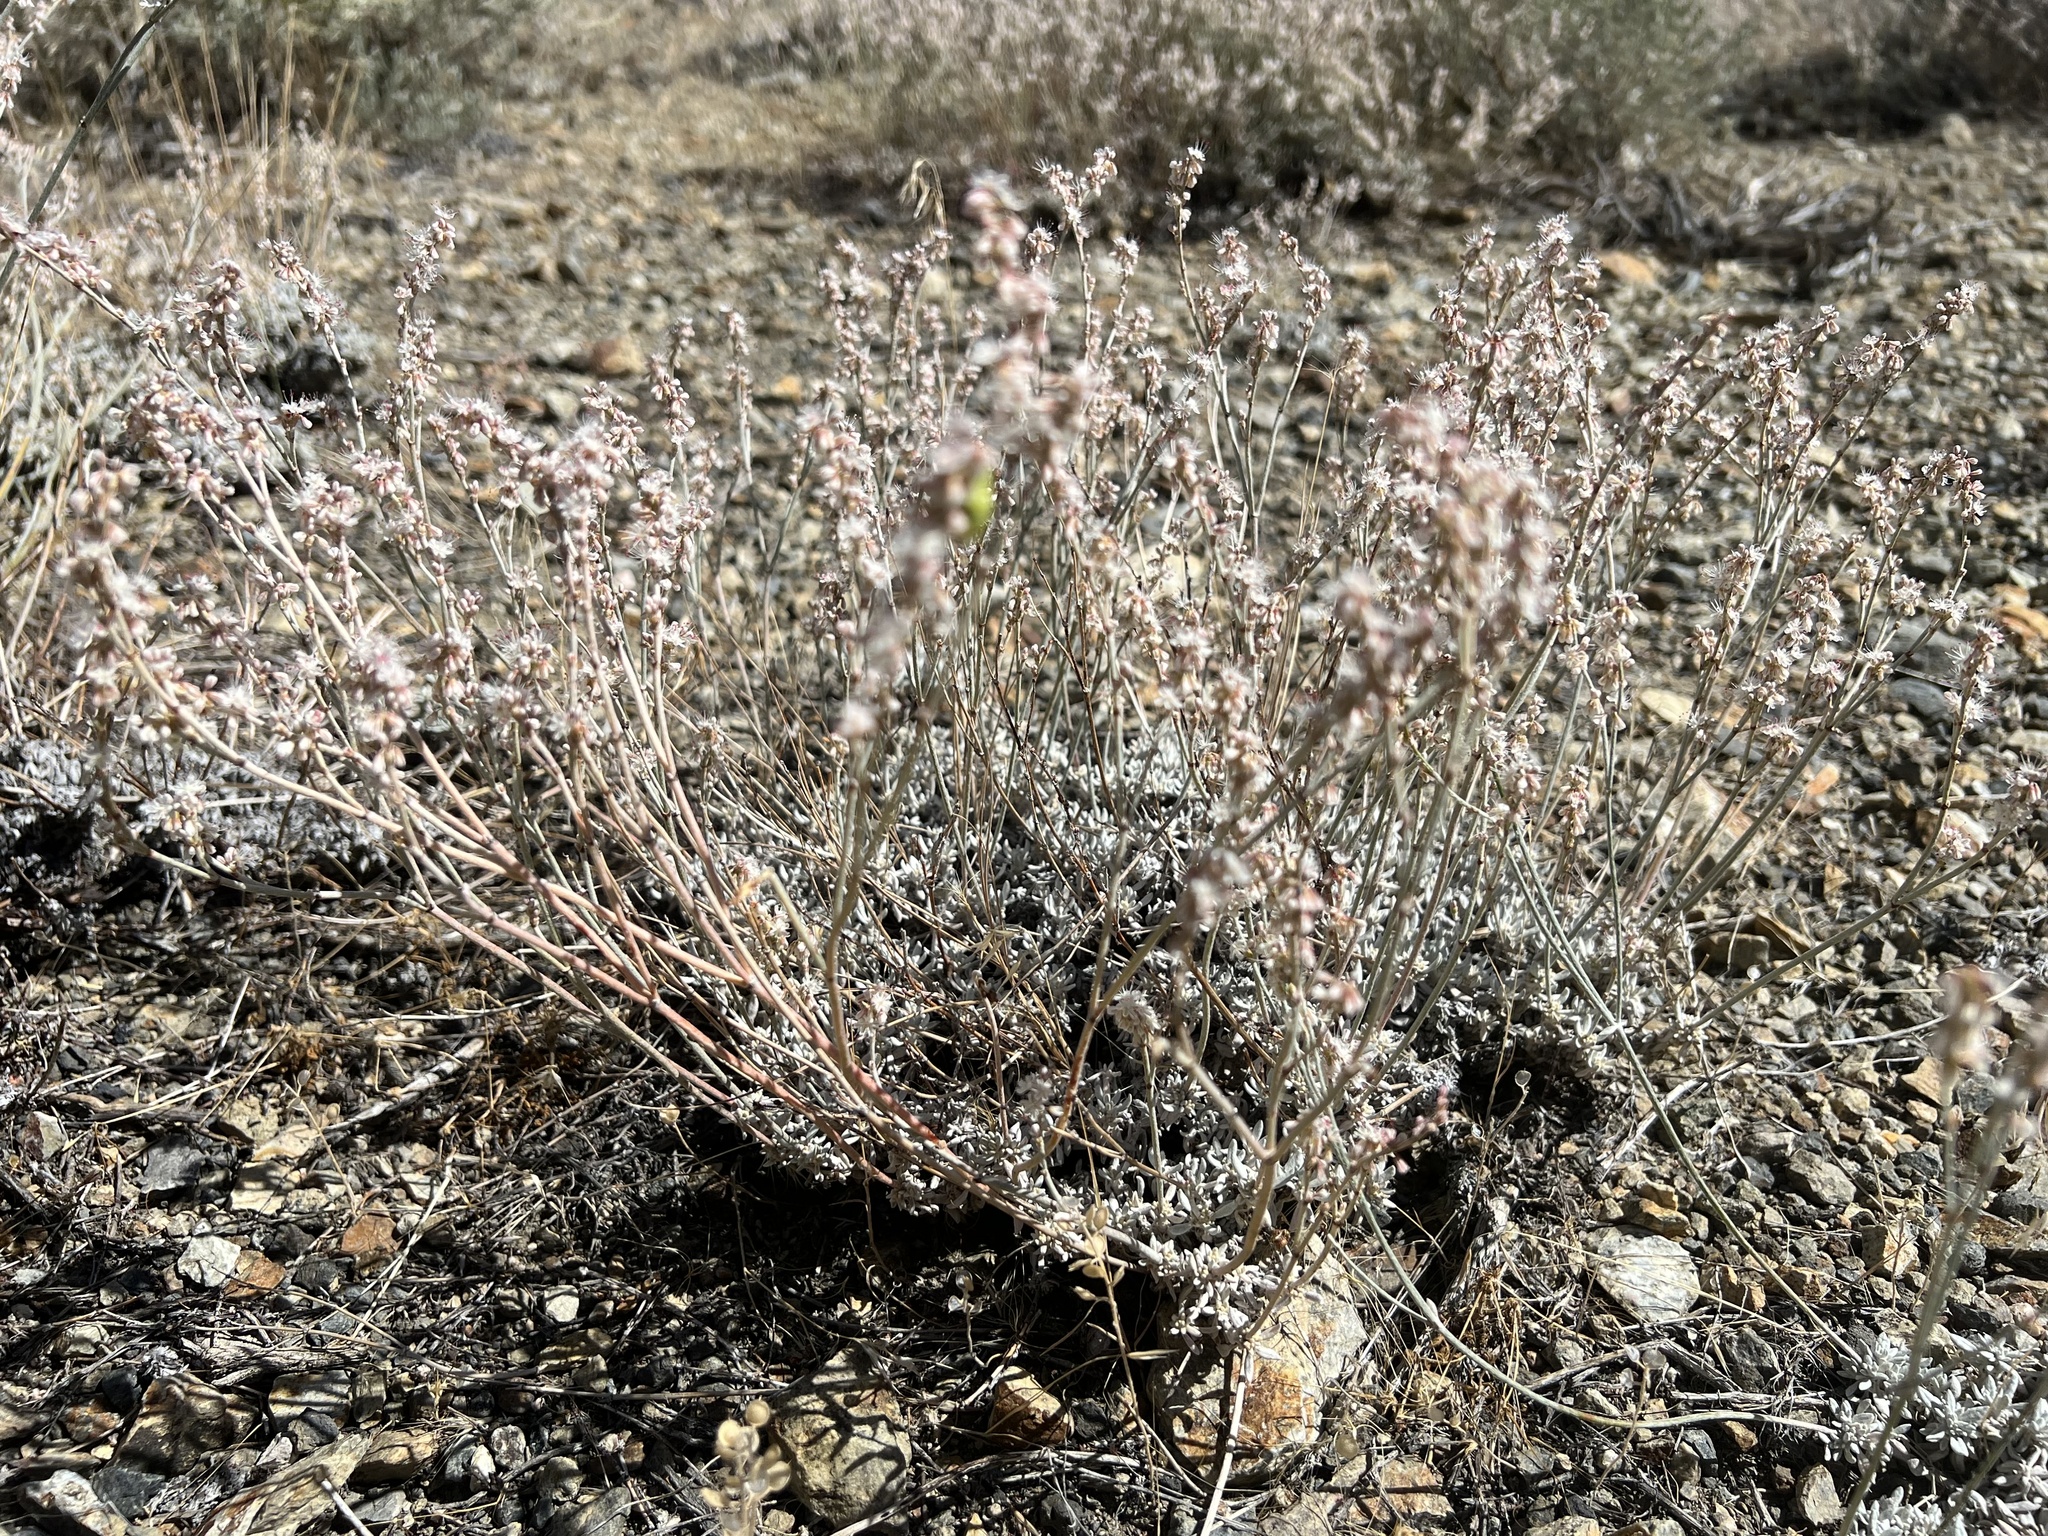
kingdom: Plantae
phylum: Tracheophyta
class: Magnoliopsida
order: Caryophyllales
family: Polygonaceae
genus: Eriogonum
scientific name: Eriogonum wrightii
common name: Bastard-sage
